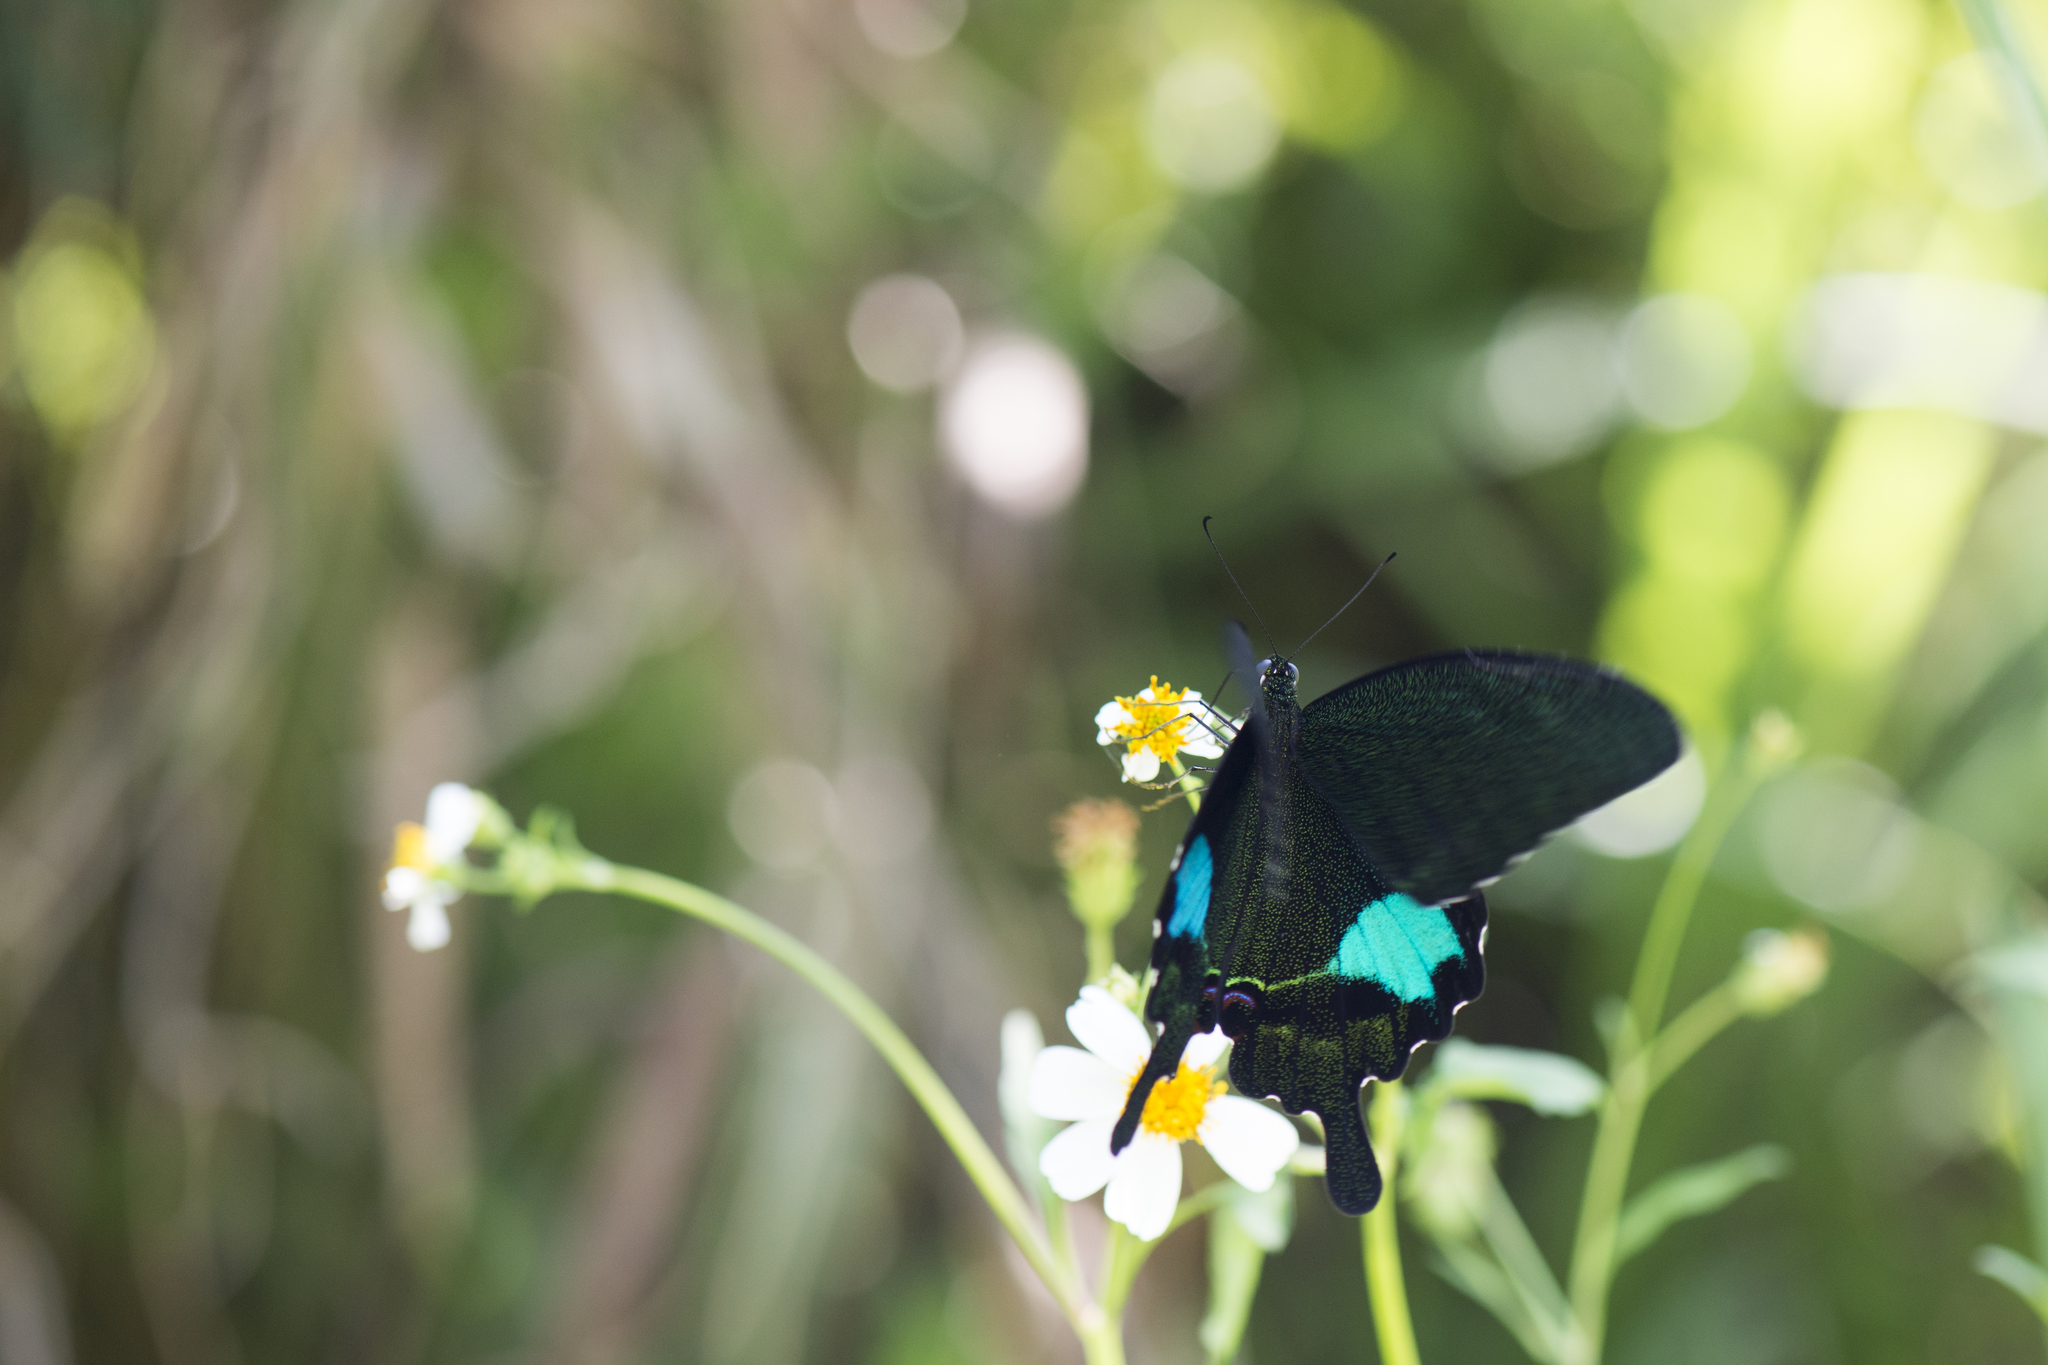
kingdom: Animalia
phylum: Arthropoda
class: Insecta
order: Lepidoptera
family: Papilionidae
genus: Papilio
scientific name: Papilio paris
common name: Paris peacock
